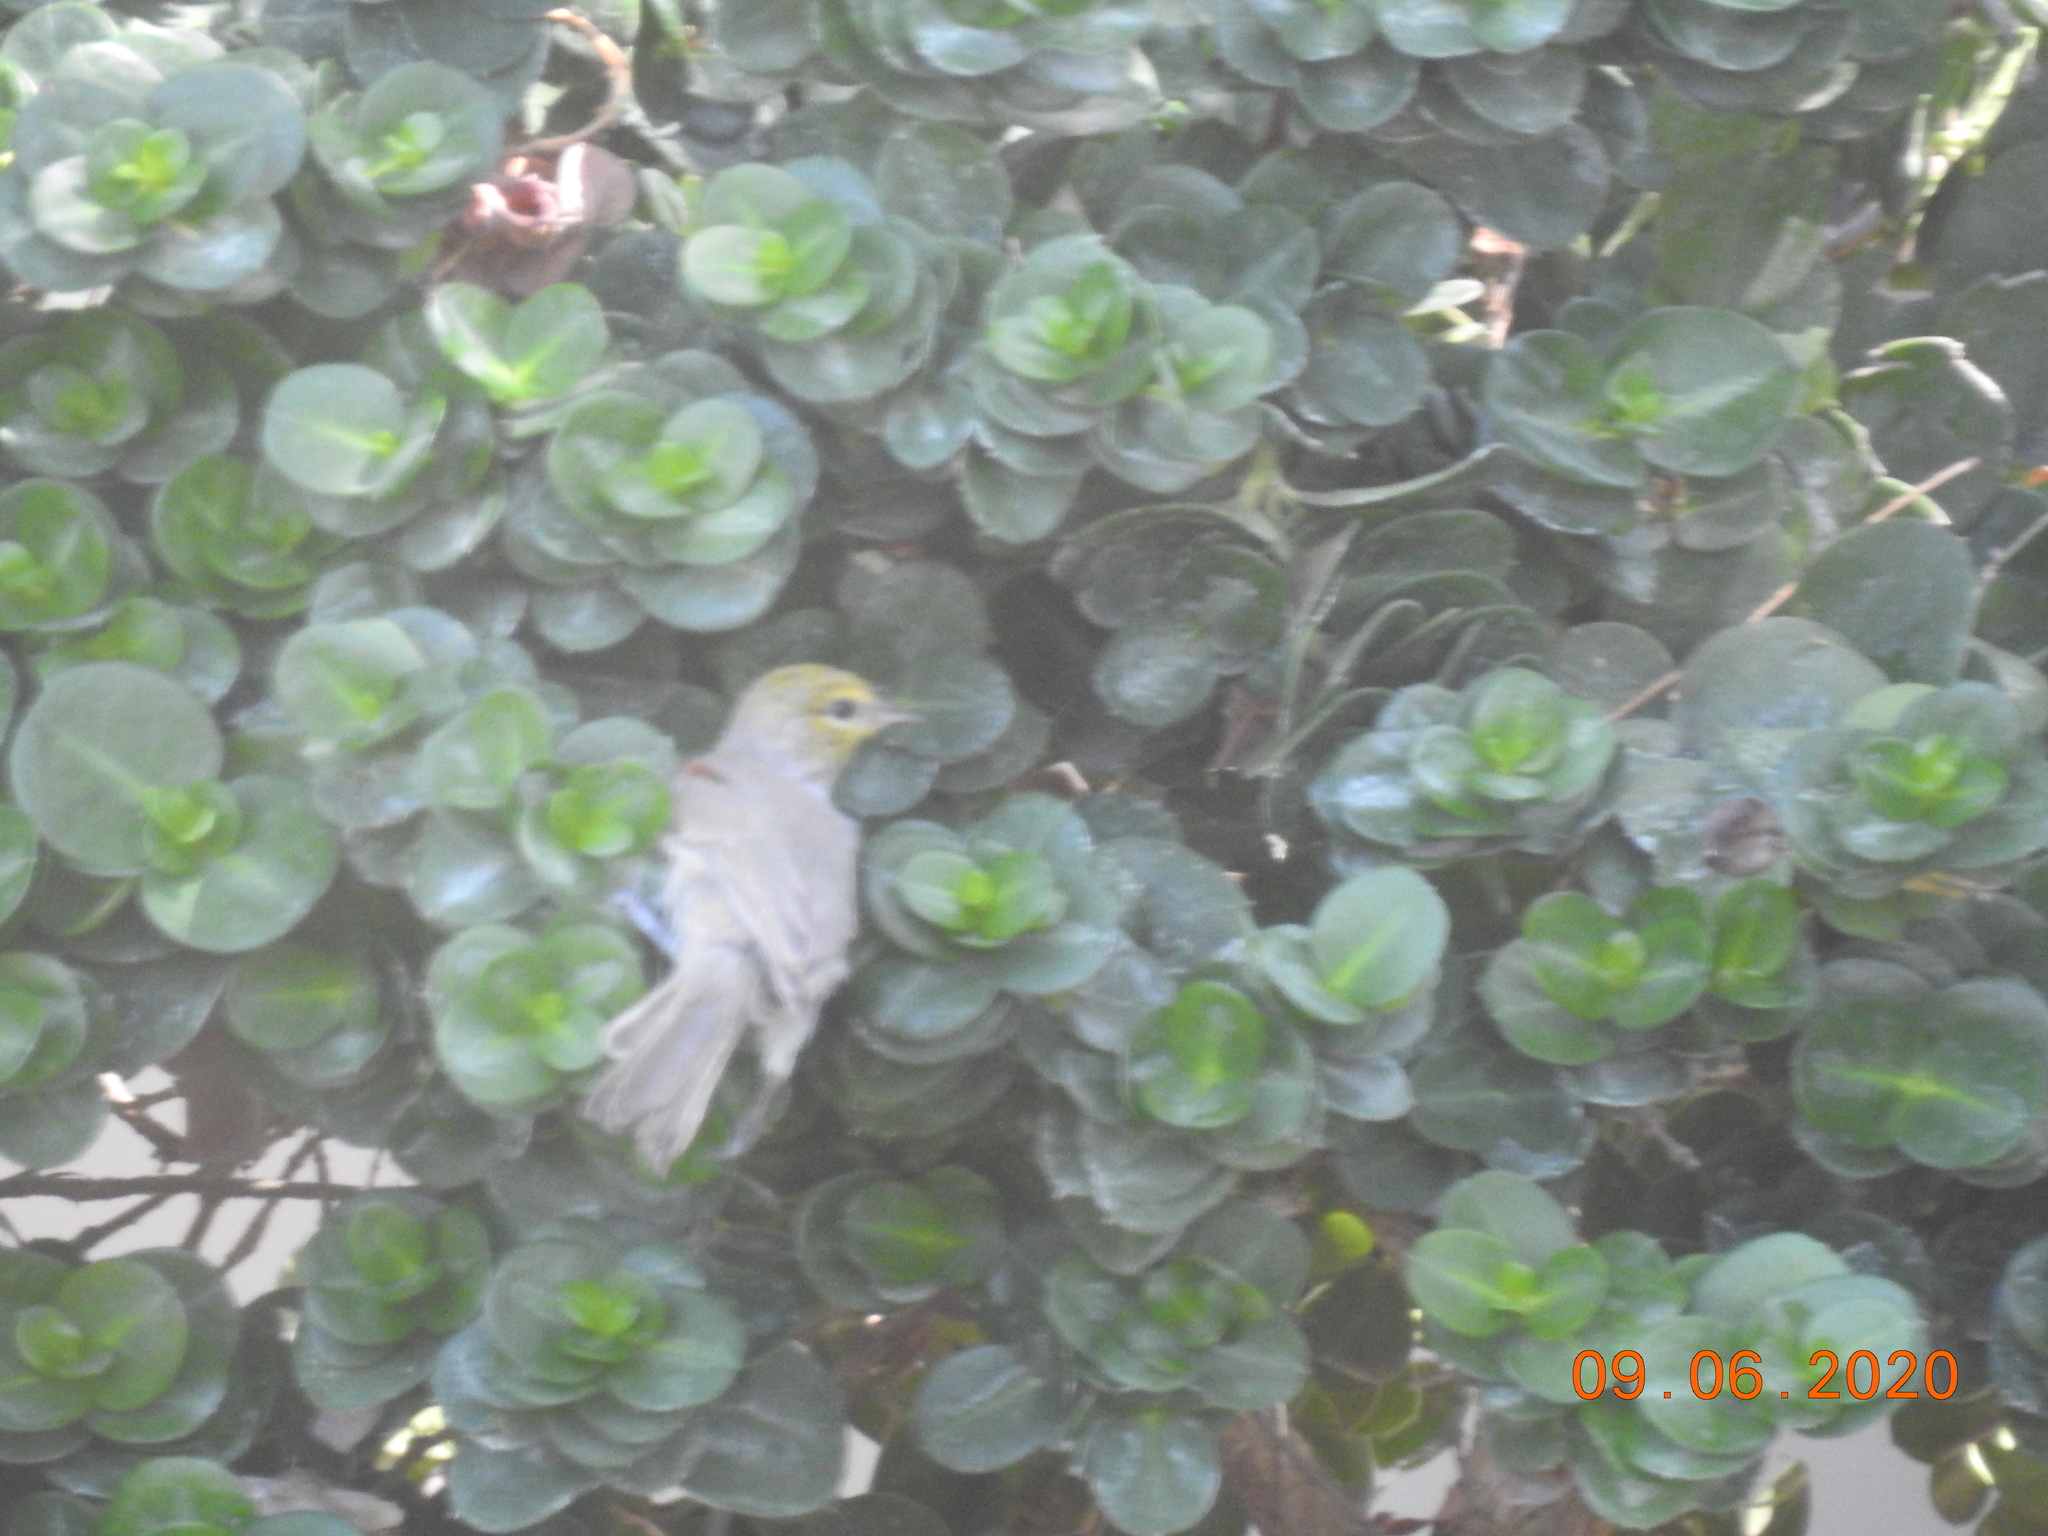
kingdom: Animalia
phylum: Chordata
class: Aves
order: Passeriformes
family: Remizidae
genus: Auriparus
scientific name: Auriparus flaviceps
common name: Verdin
